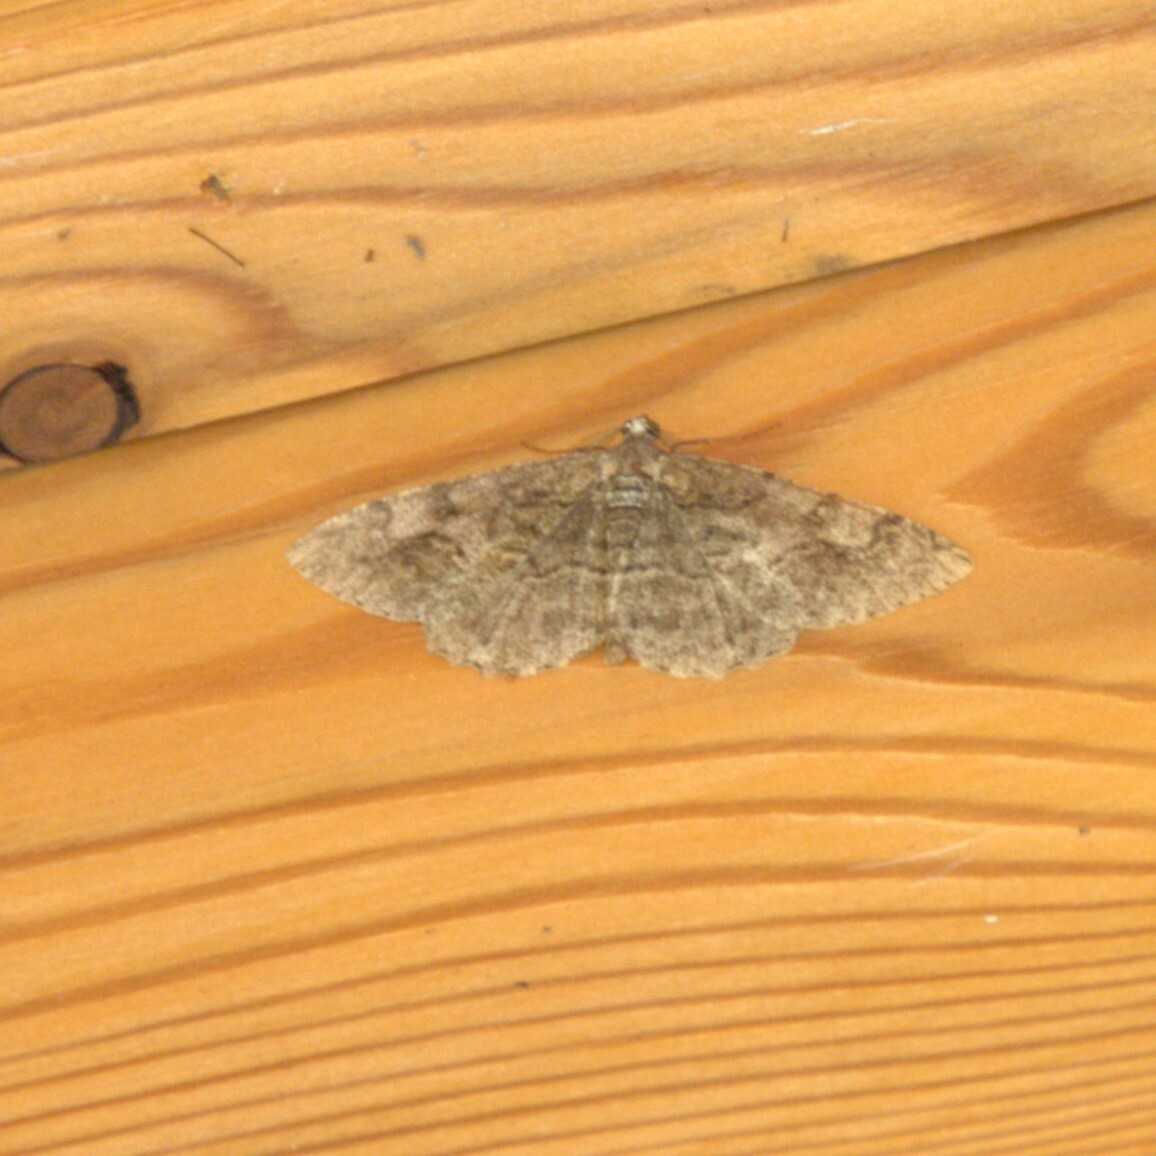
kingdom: Animalia
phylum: Arthropoda
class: Insecta
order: Lepidoptera
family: Geometridae
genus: Alcis
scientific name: Alcis repandata
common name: Mottled beauty
